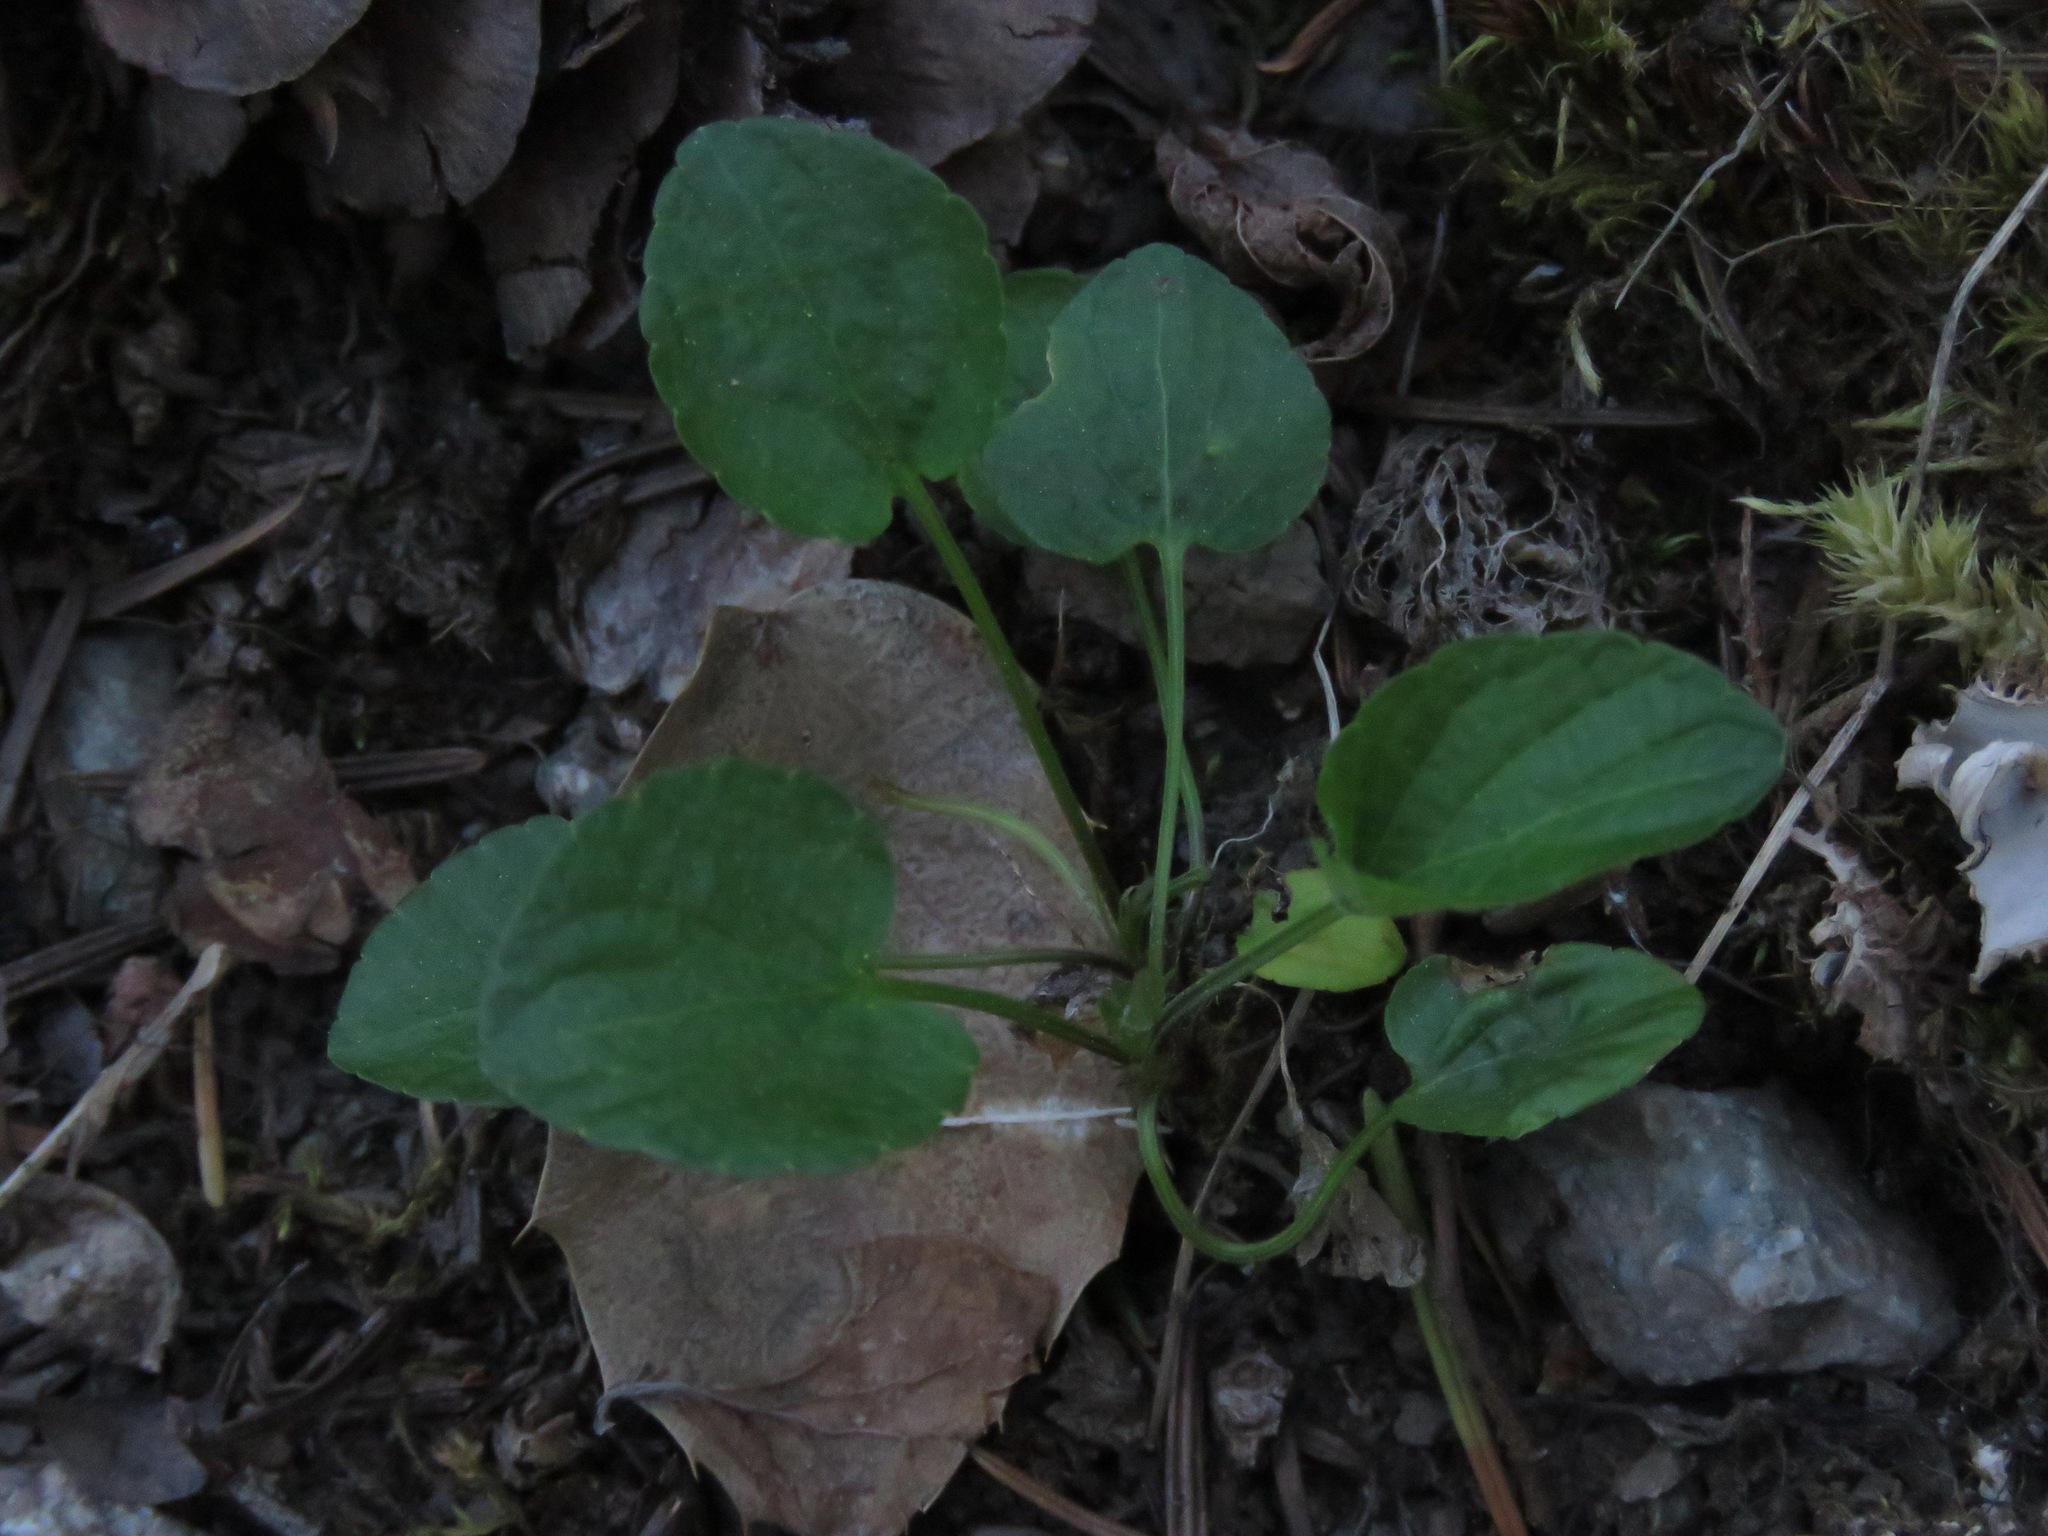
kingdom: Plantae
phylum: Tracheophyta
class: Magnoliopsida
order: Malpighiales
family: Violaceae
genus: Viola
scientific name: Viola adunca
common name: Sand violet
